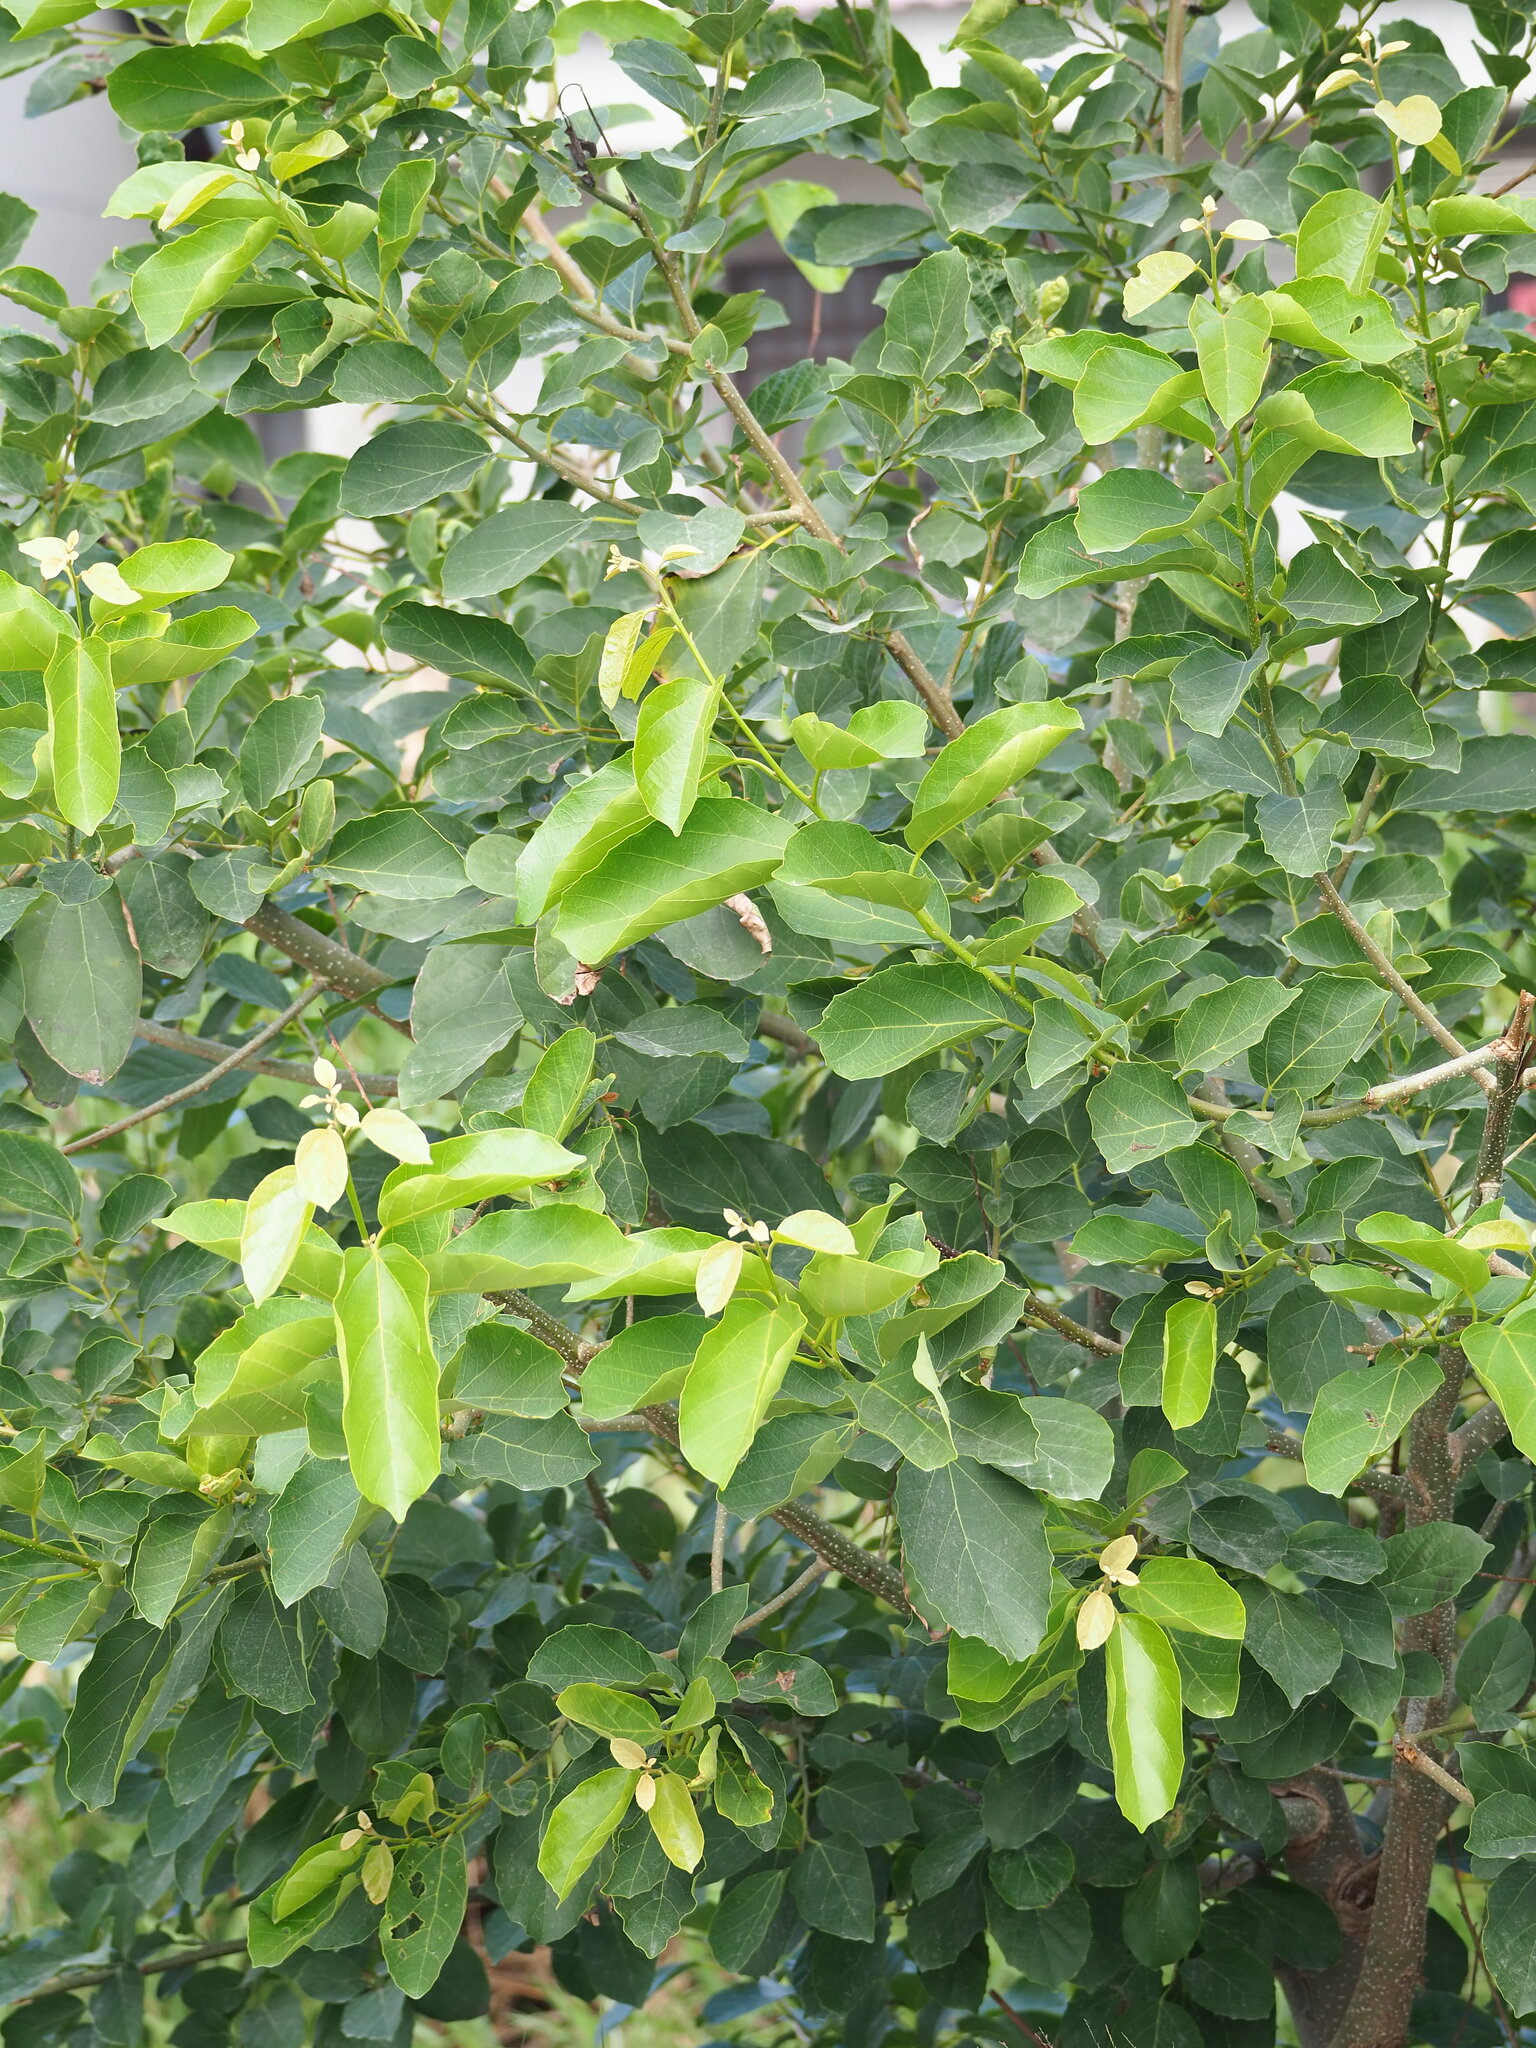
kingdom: Plantae
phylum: Tracheophyta
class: Magnoliopsida
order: Boraginales
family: Cordiaceae
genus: Cordia
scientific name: Cordia dichotoma
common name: Fragrant manjack
